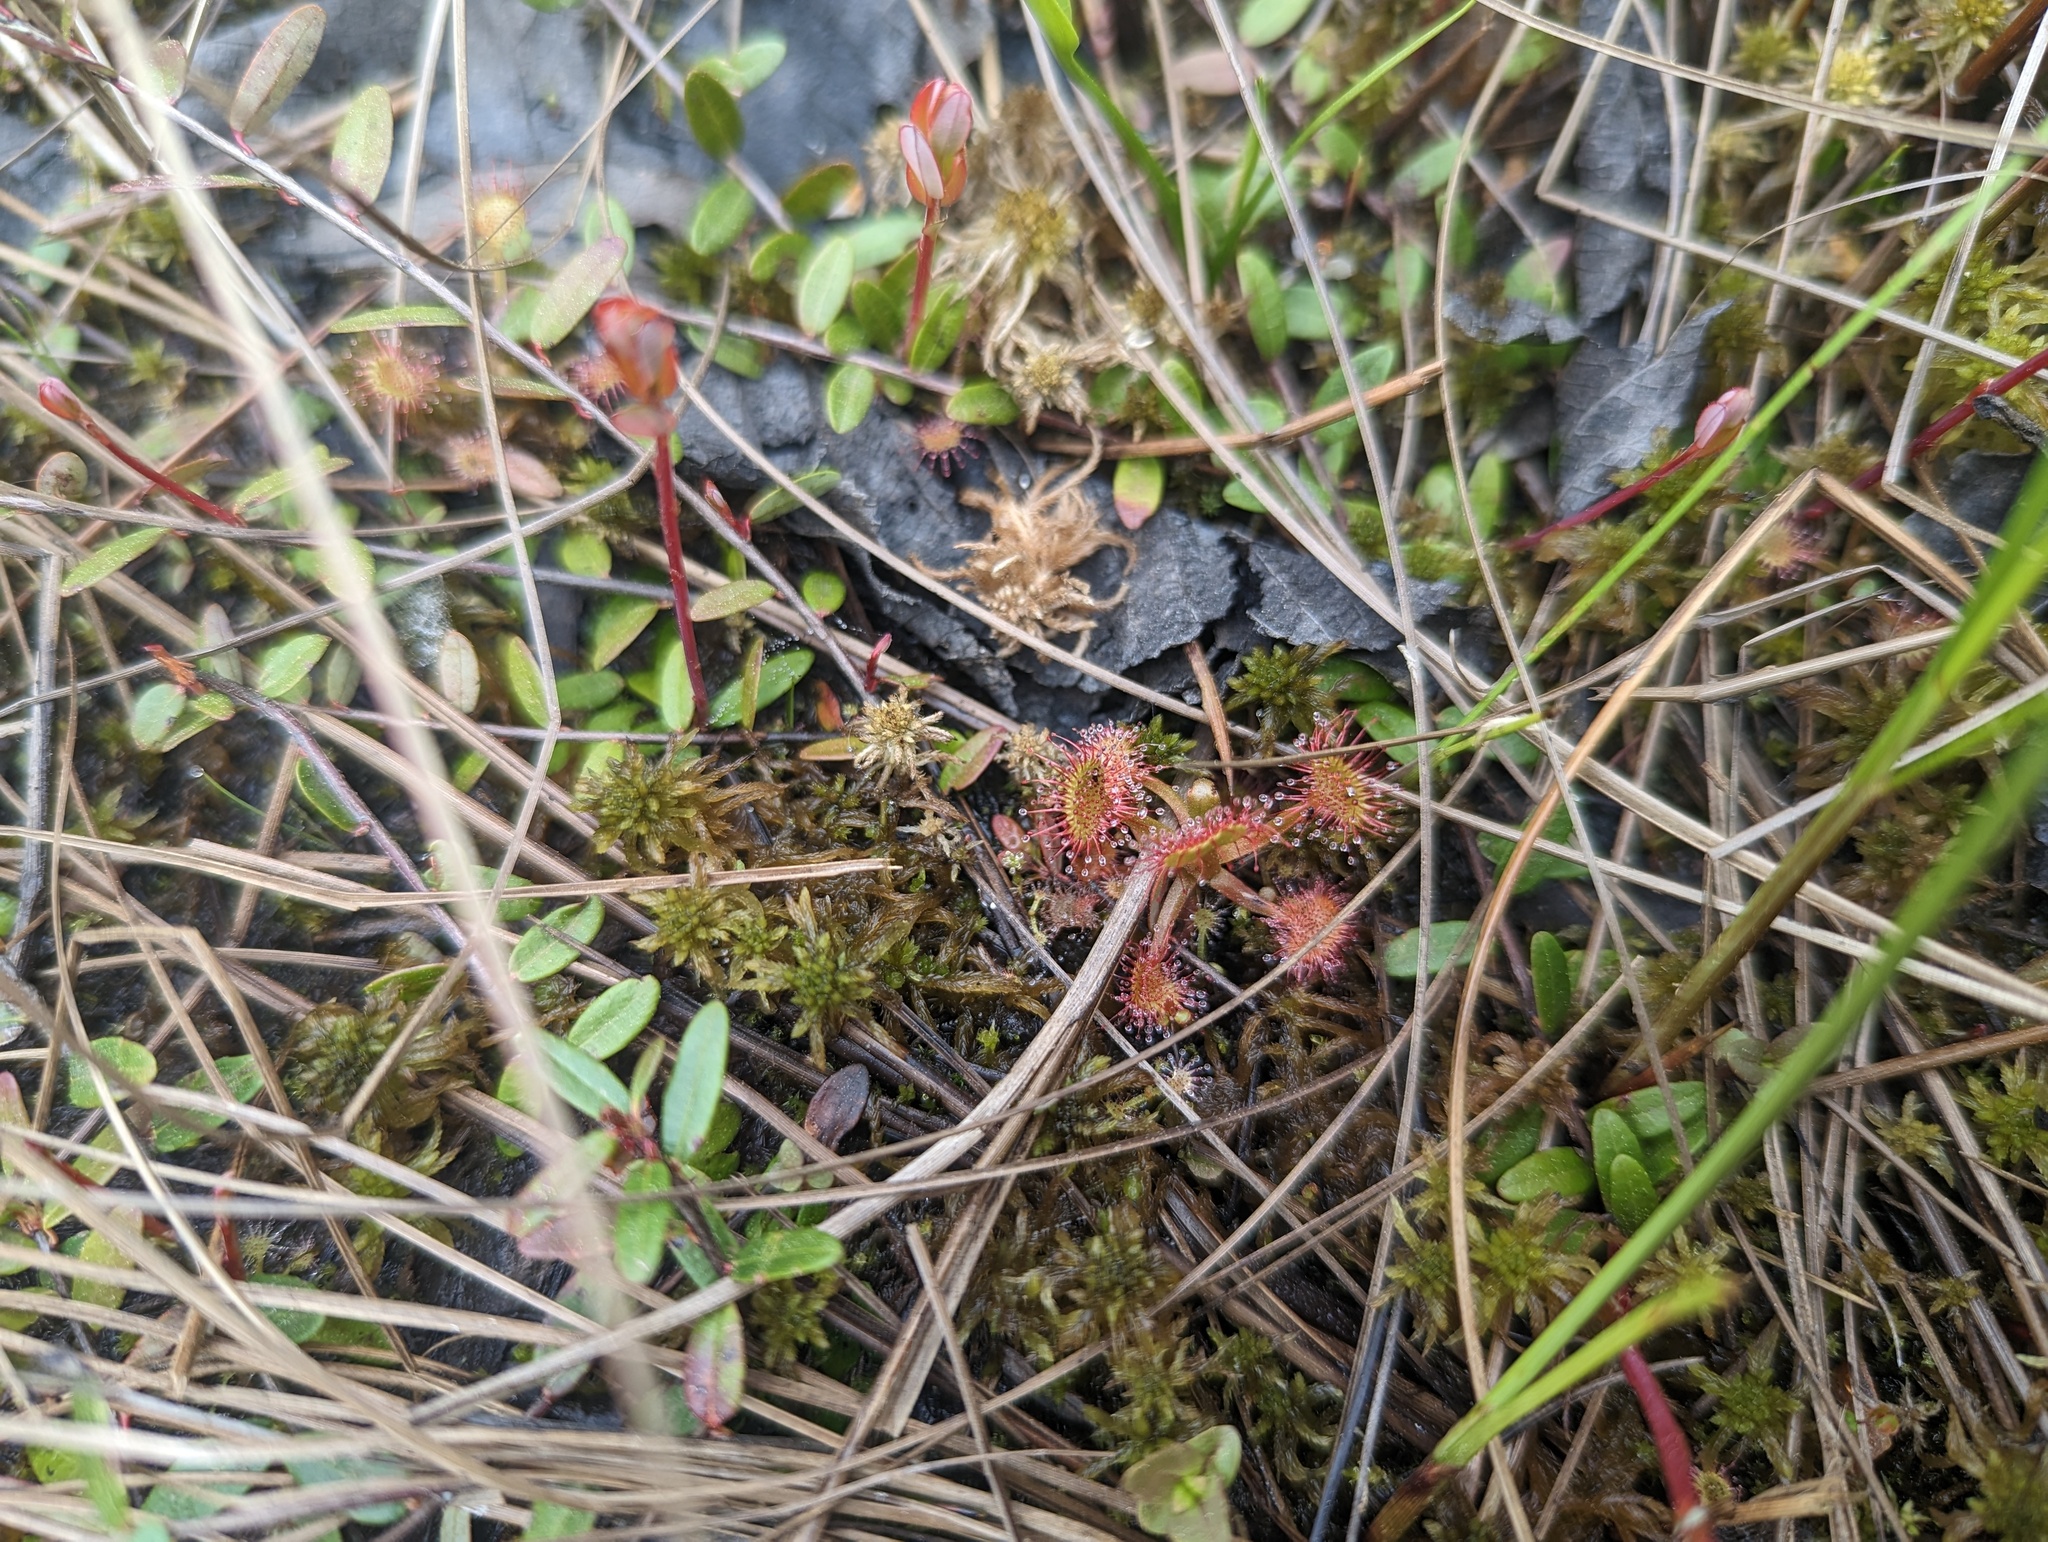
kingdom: Plantae
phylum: Tracheophyta
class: Magnoliopsida
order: Caryophyllales
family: Droseraceae
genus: Drosera
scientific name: Drosera rotundifolia
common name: Round-leaved sundew
